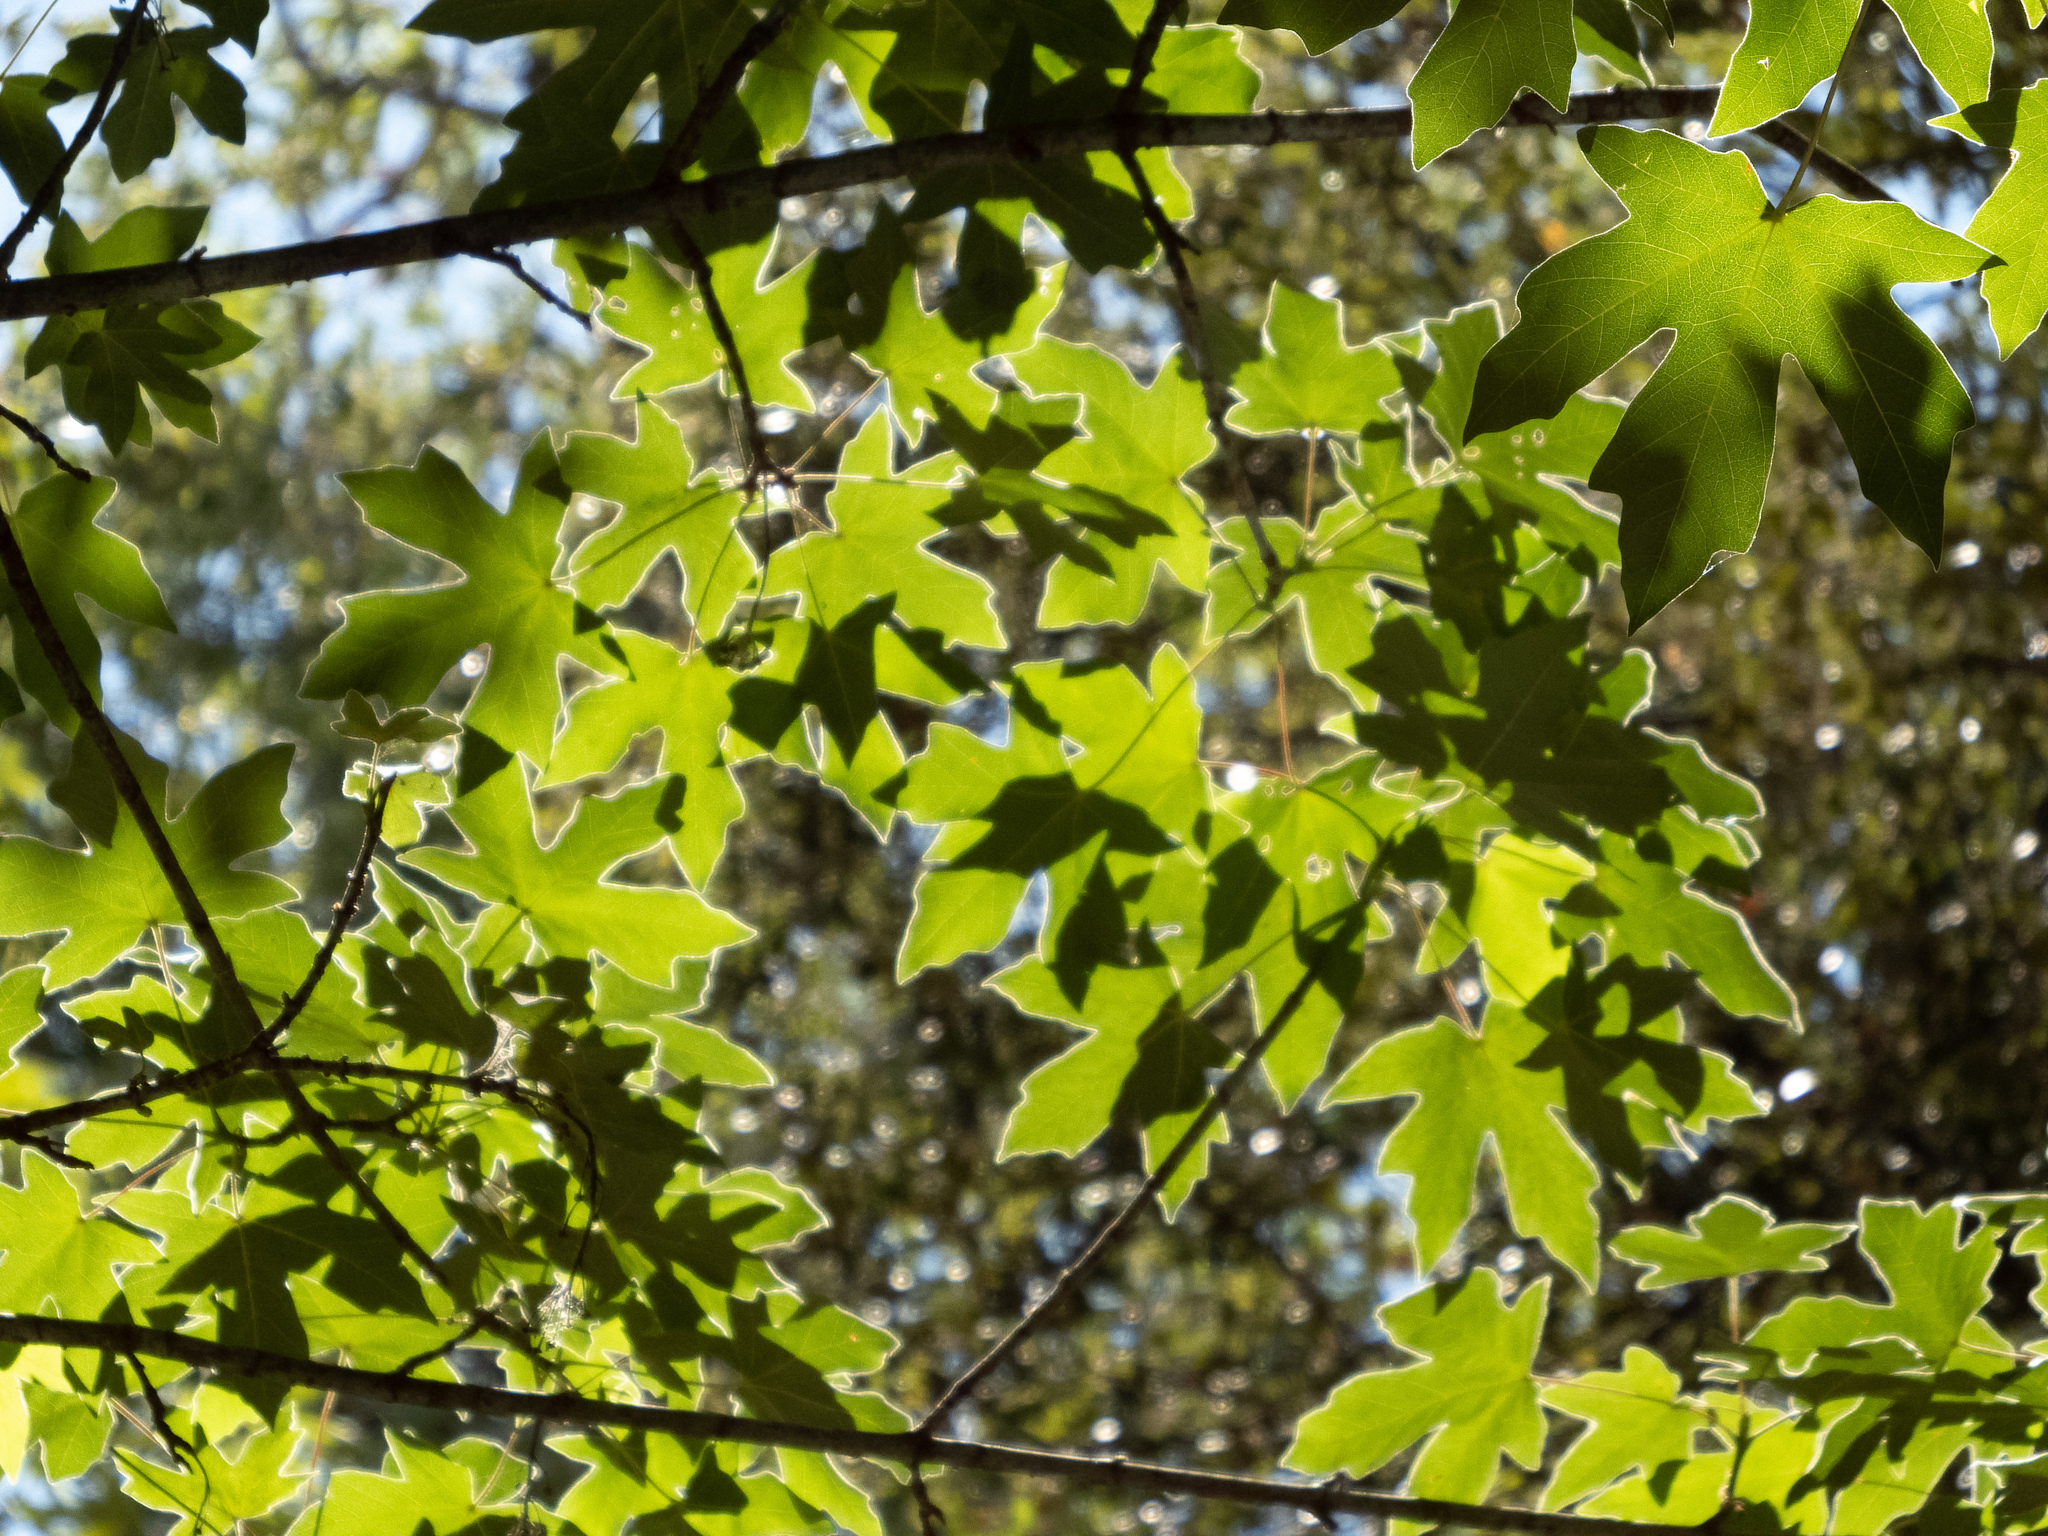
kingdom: Plantae
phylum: Tracheophyta
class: Magnoliopsida
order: Sapindales
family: Sapindaceae
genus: Acer
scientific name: Acer macrophyllum
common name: Oregon maple
